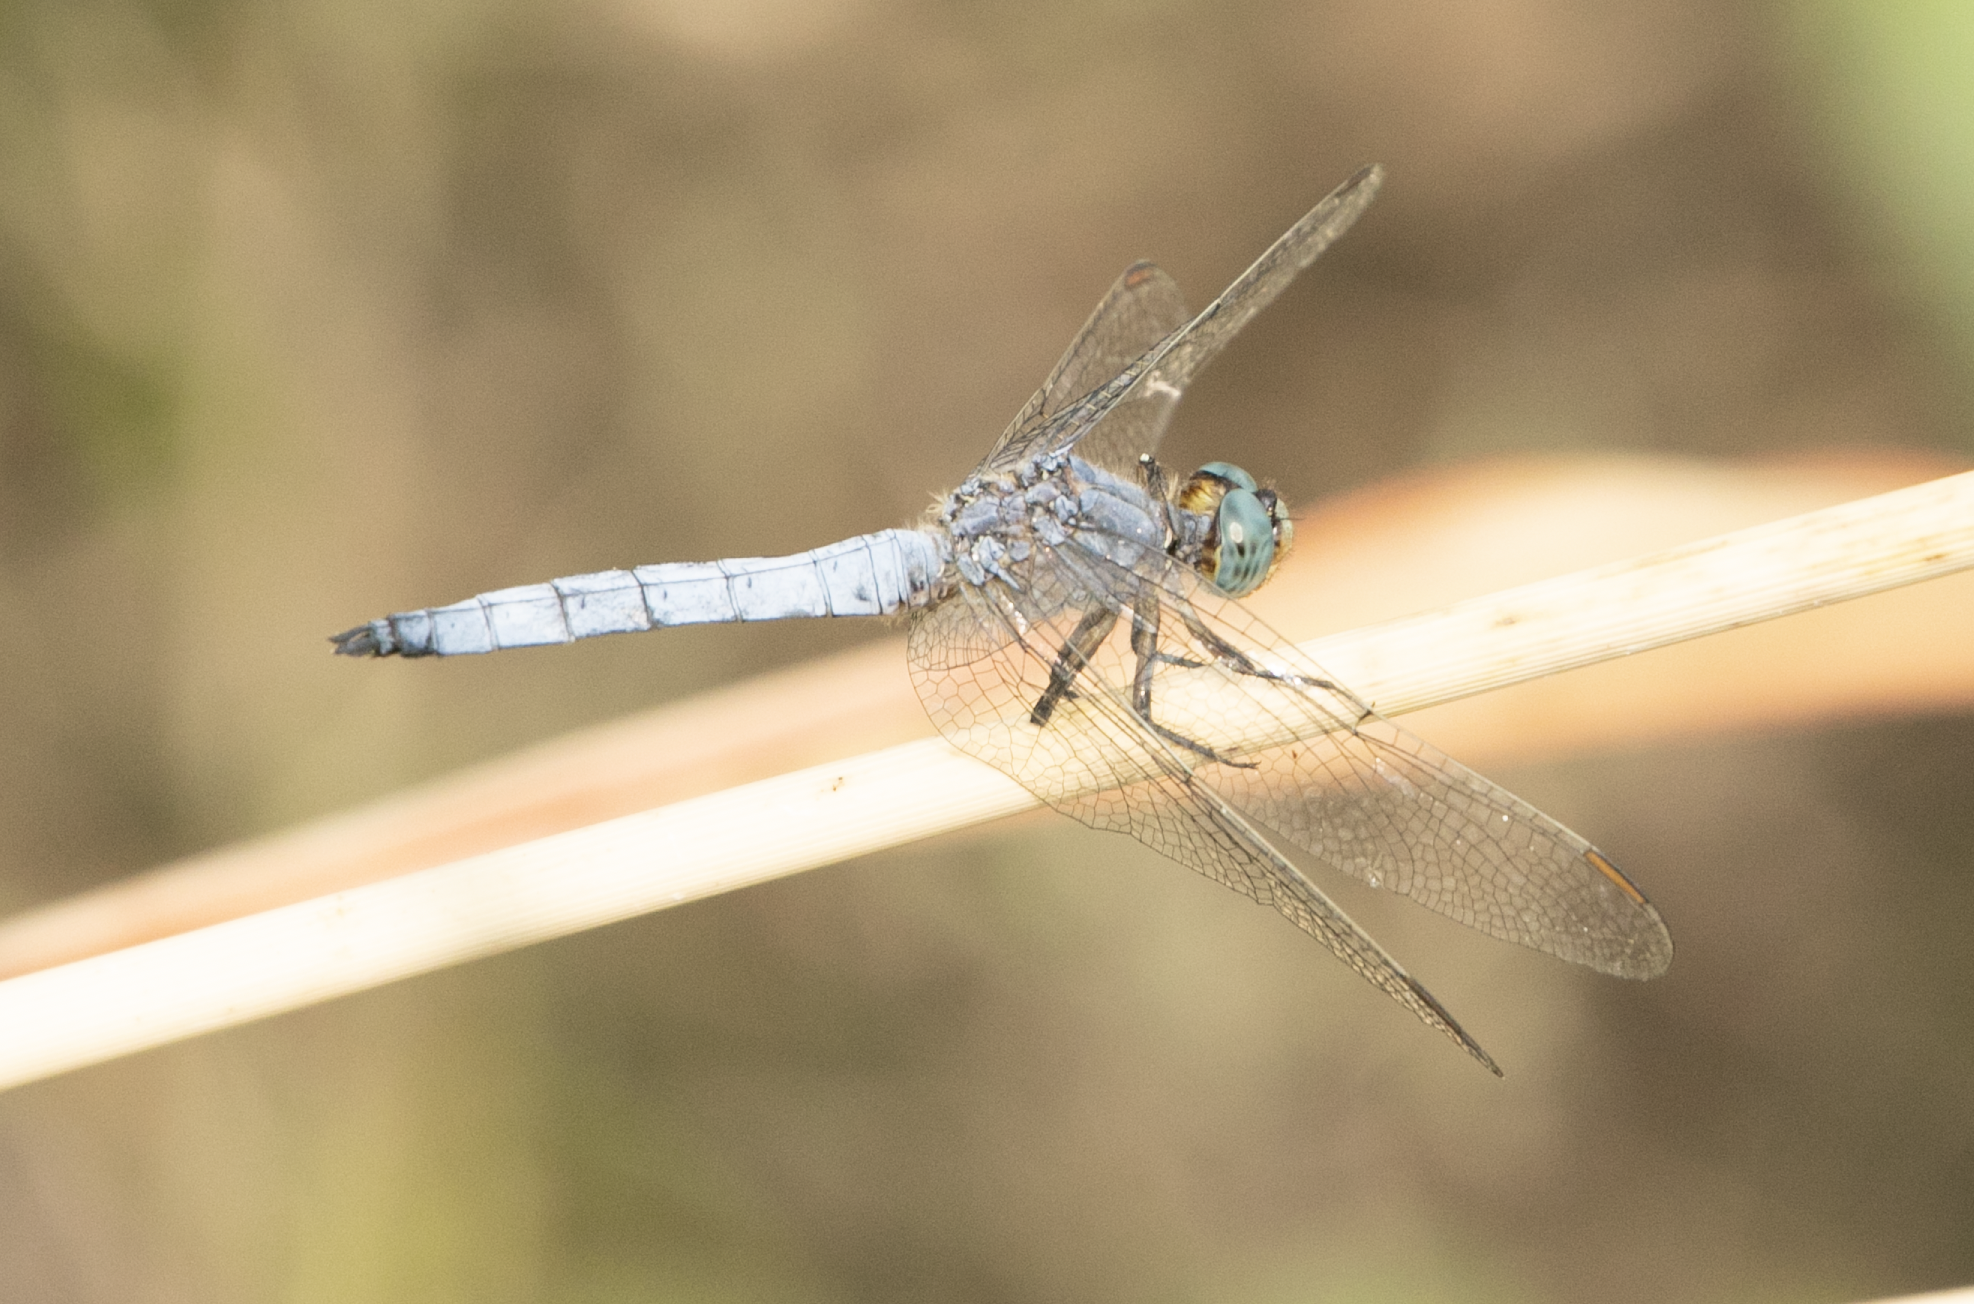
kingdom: Animalia
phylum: Arthropoda
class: Insecta
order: Odonata
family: Libellulidae
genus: Orthetrum
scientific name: Orthetrum coerulescens
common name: Keeled skimmer
